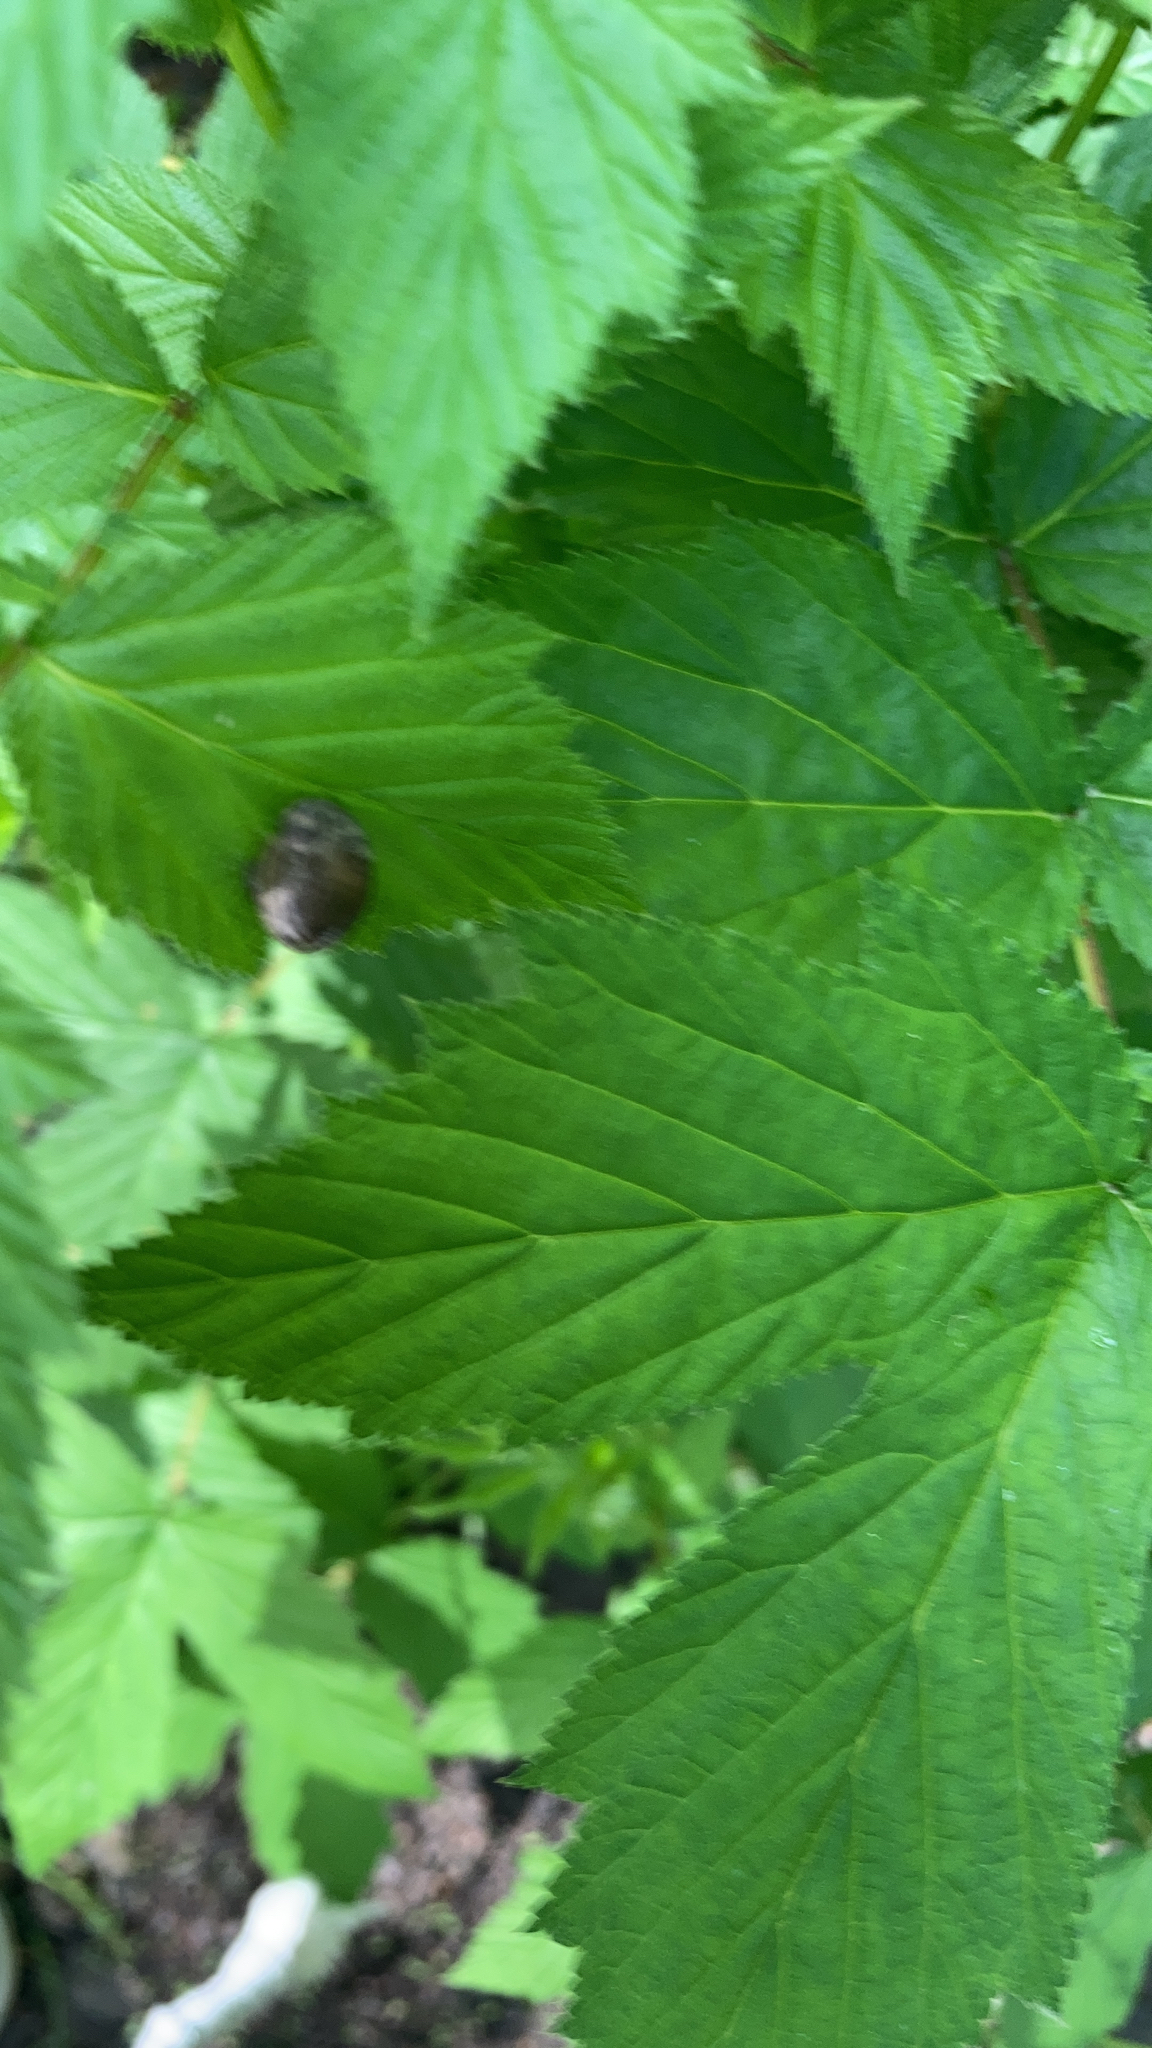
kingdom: Plantae
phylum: Tracheophyta
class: Magnoliopsida
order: Rosales
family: Rosaceae
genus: Filipendula
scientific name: Filipendula ulmaria
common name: Meadowsweet
